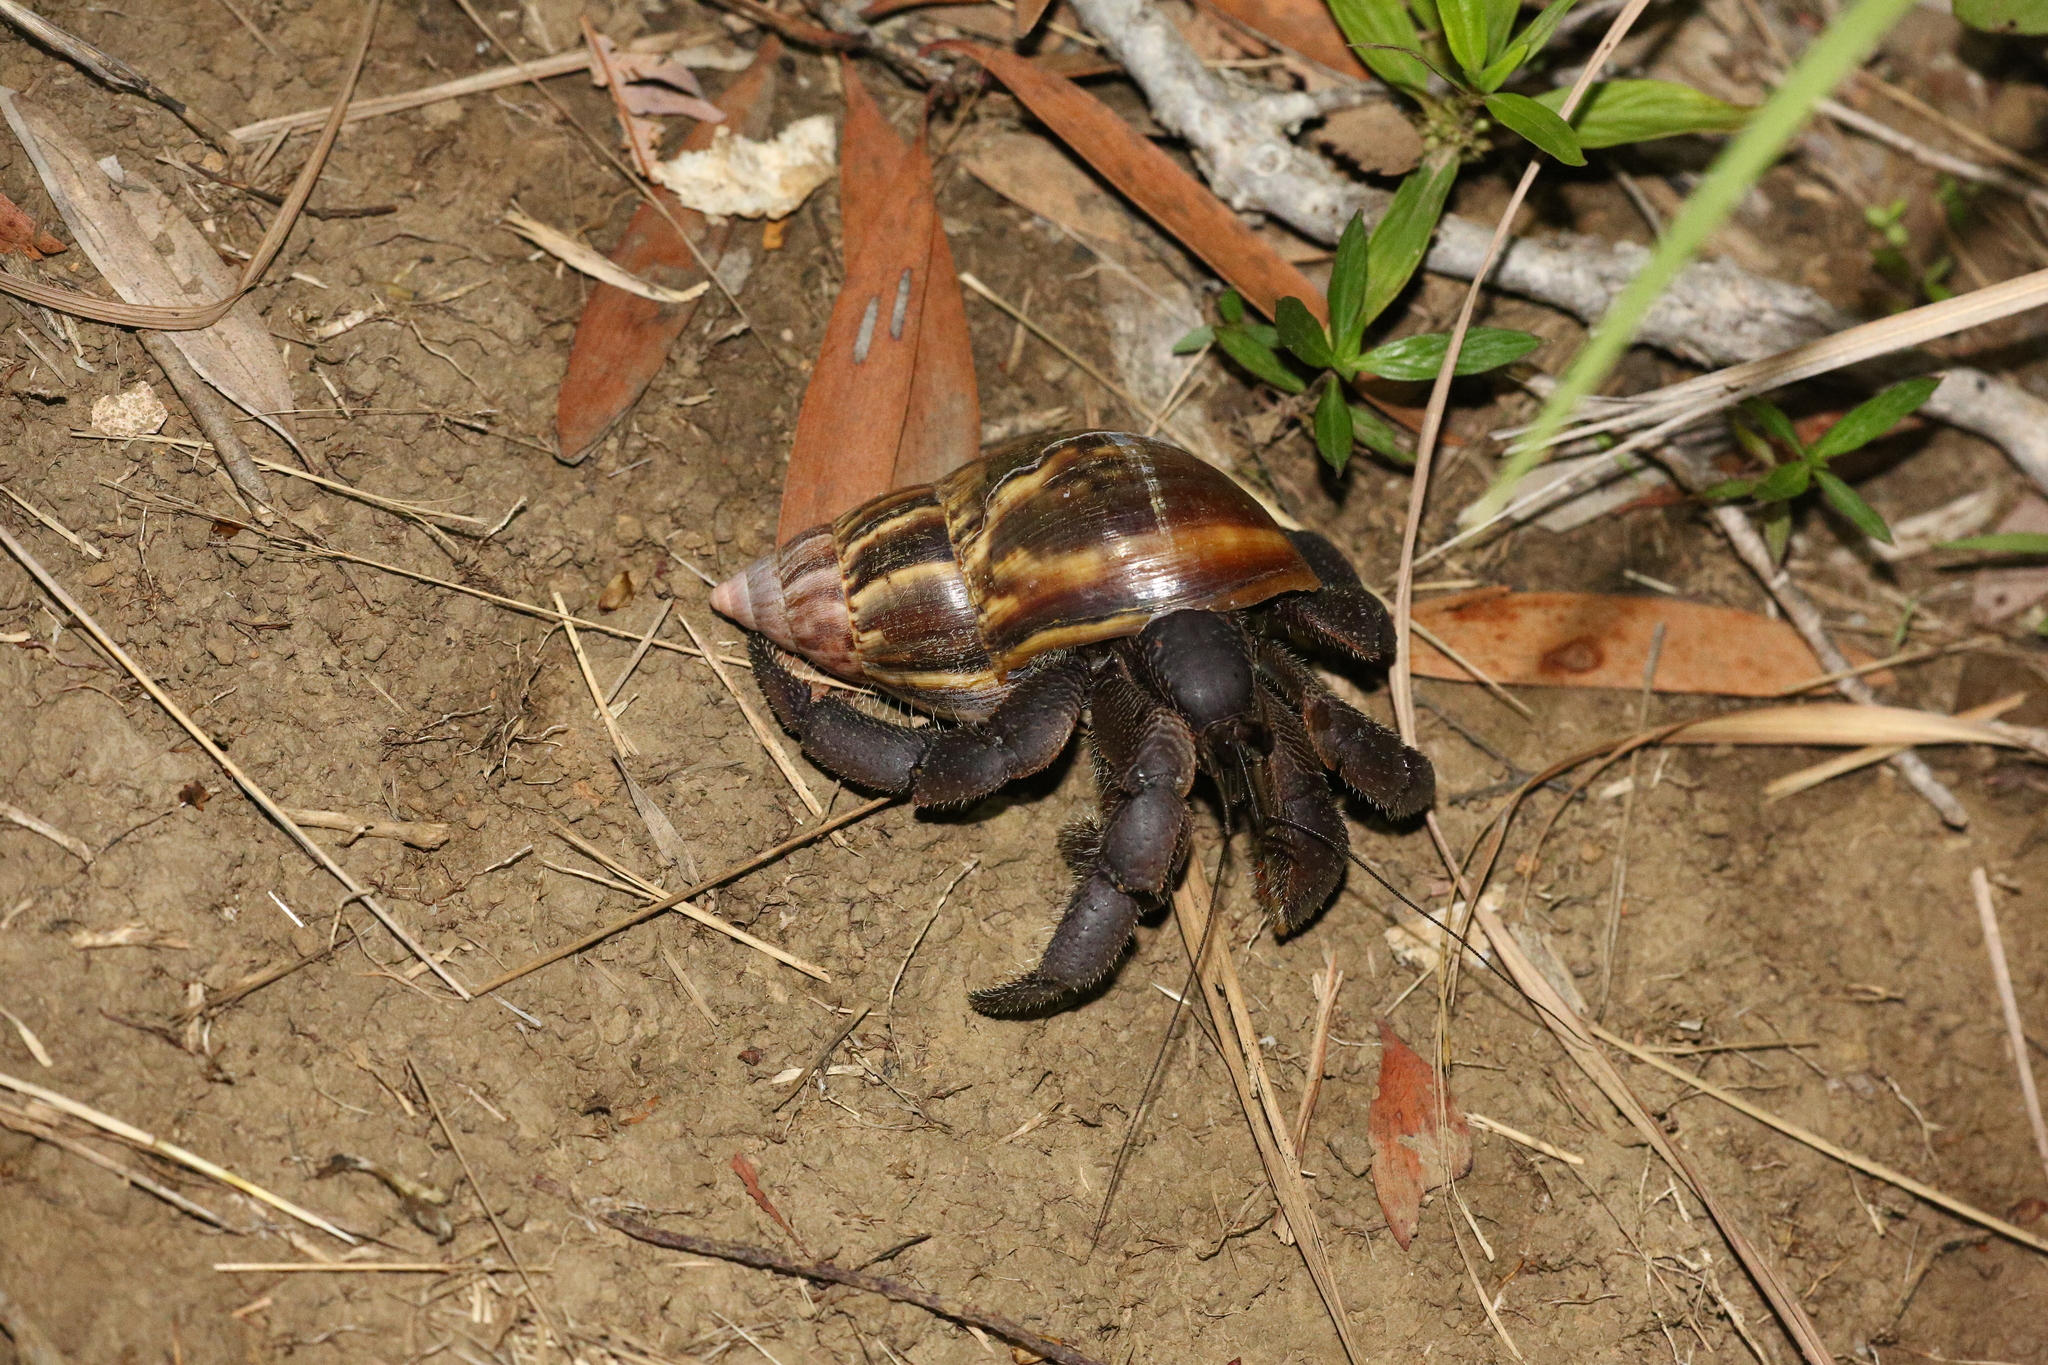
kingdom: Animalia
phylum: Arthropoda
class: Malacostraca
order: Decapoda
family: Coenobitidae
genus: Coenobita
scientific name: Coenobita spinosus
